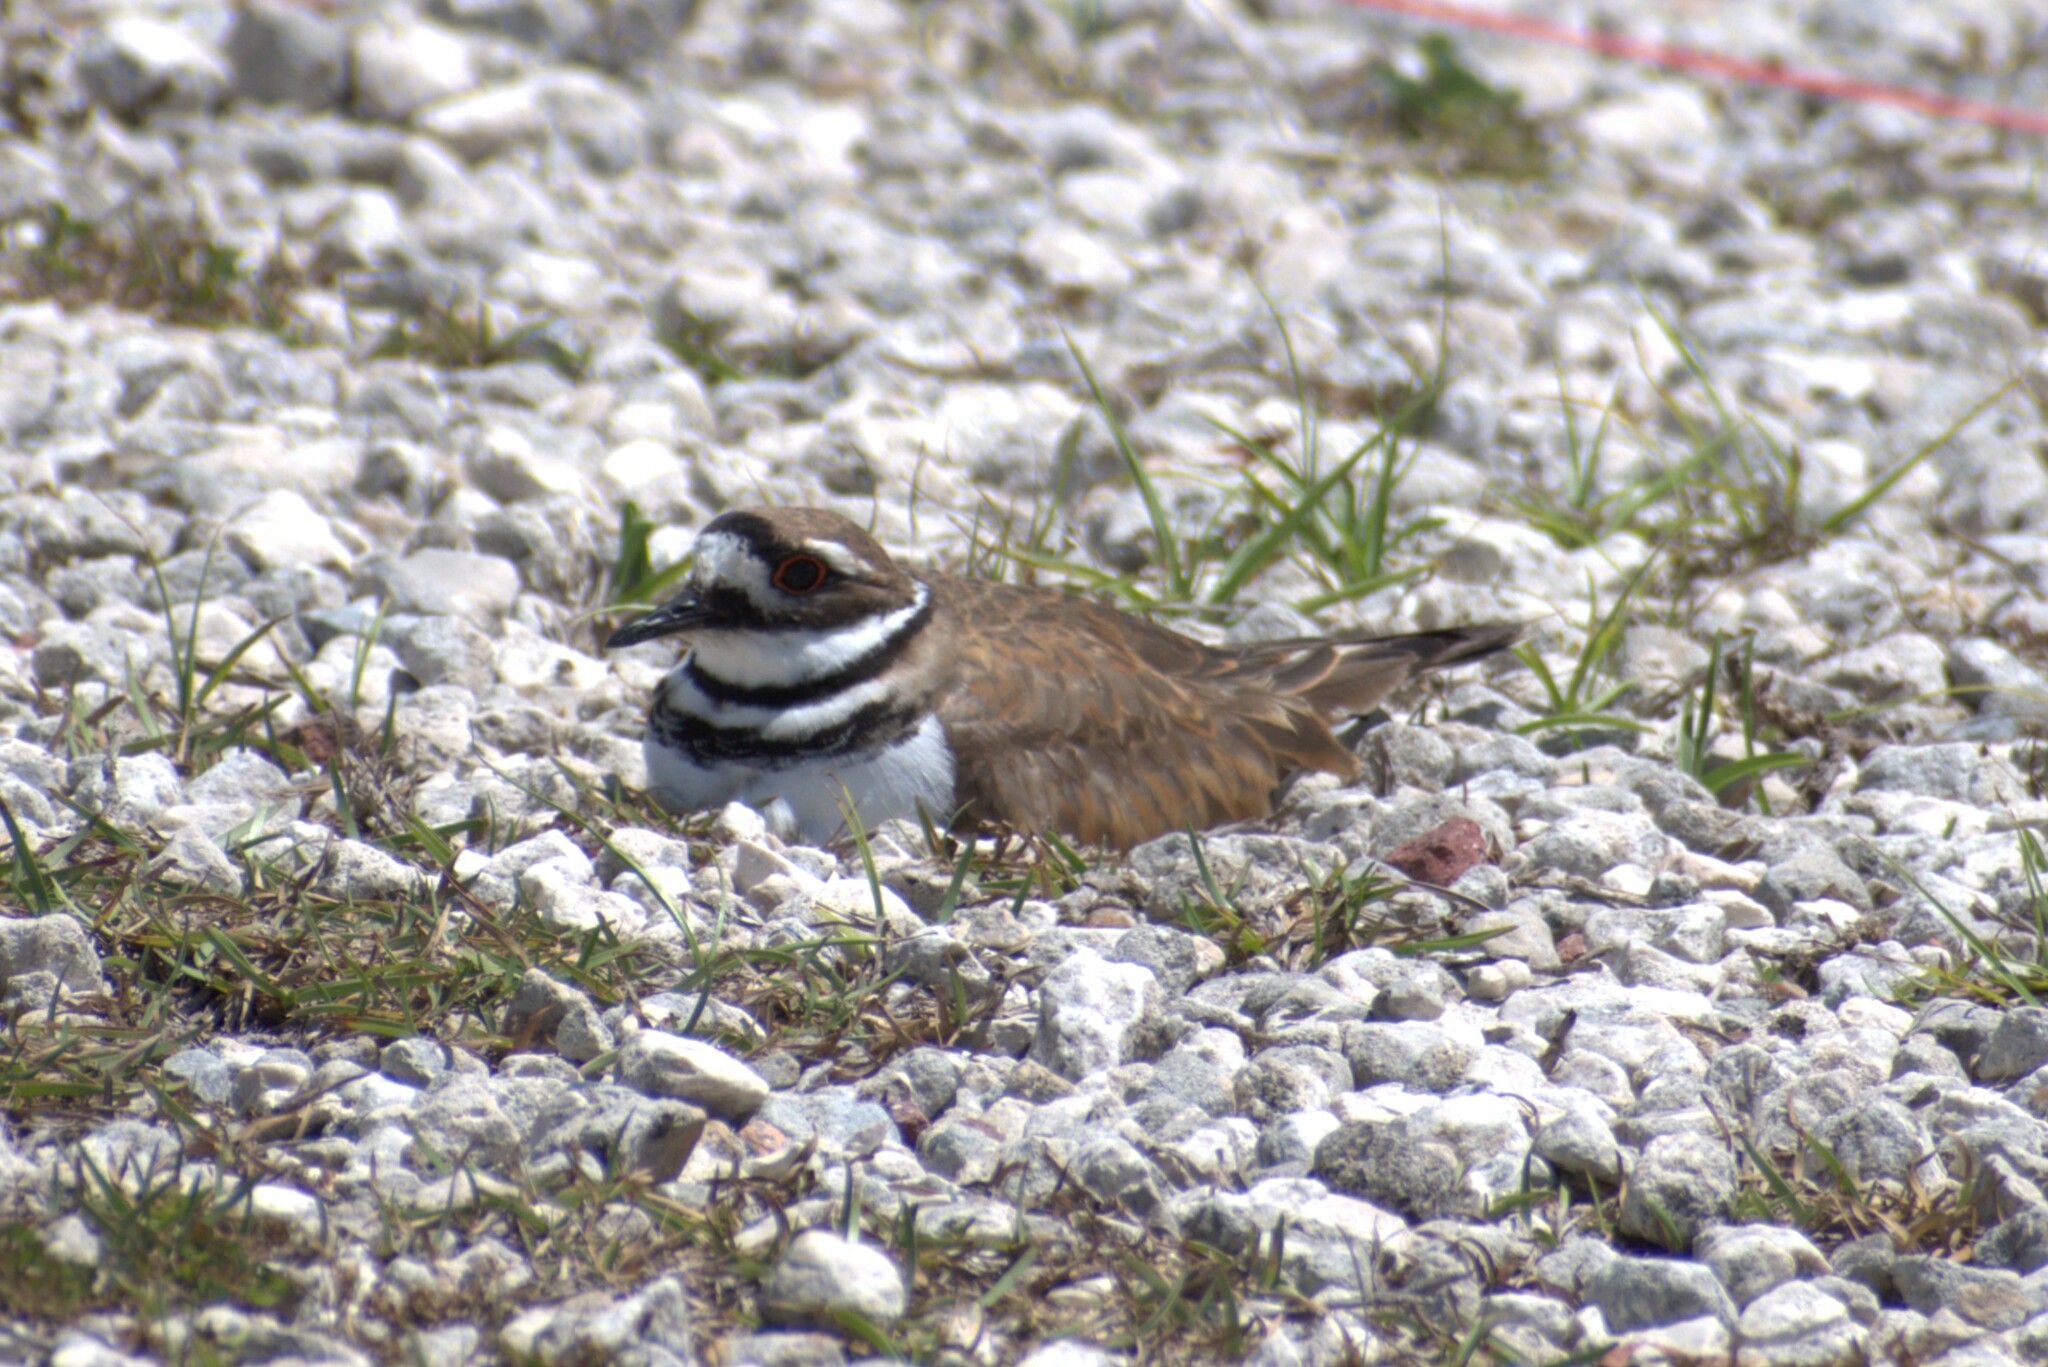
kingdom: Animalia
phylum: Chordata
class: Aves
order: Charadriiformes
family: Charadriidae
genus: Charadrius
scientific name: Charadrius vociferus
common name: Killdeer
